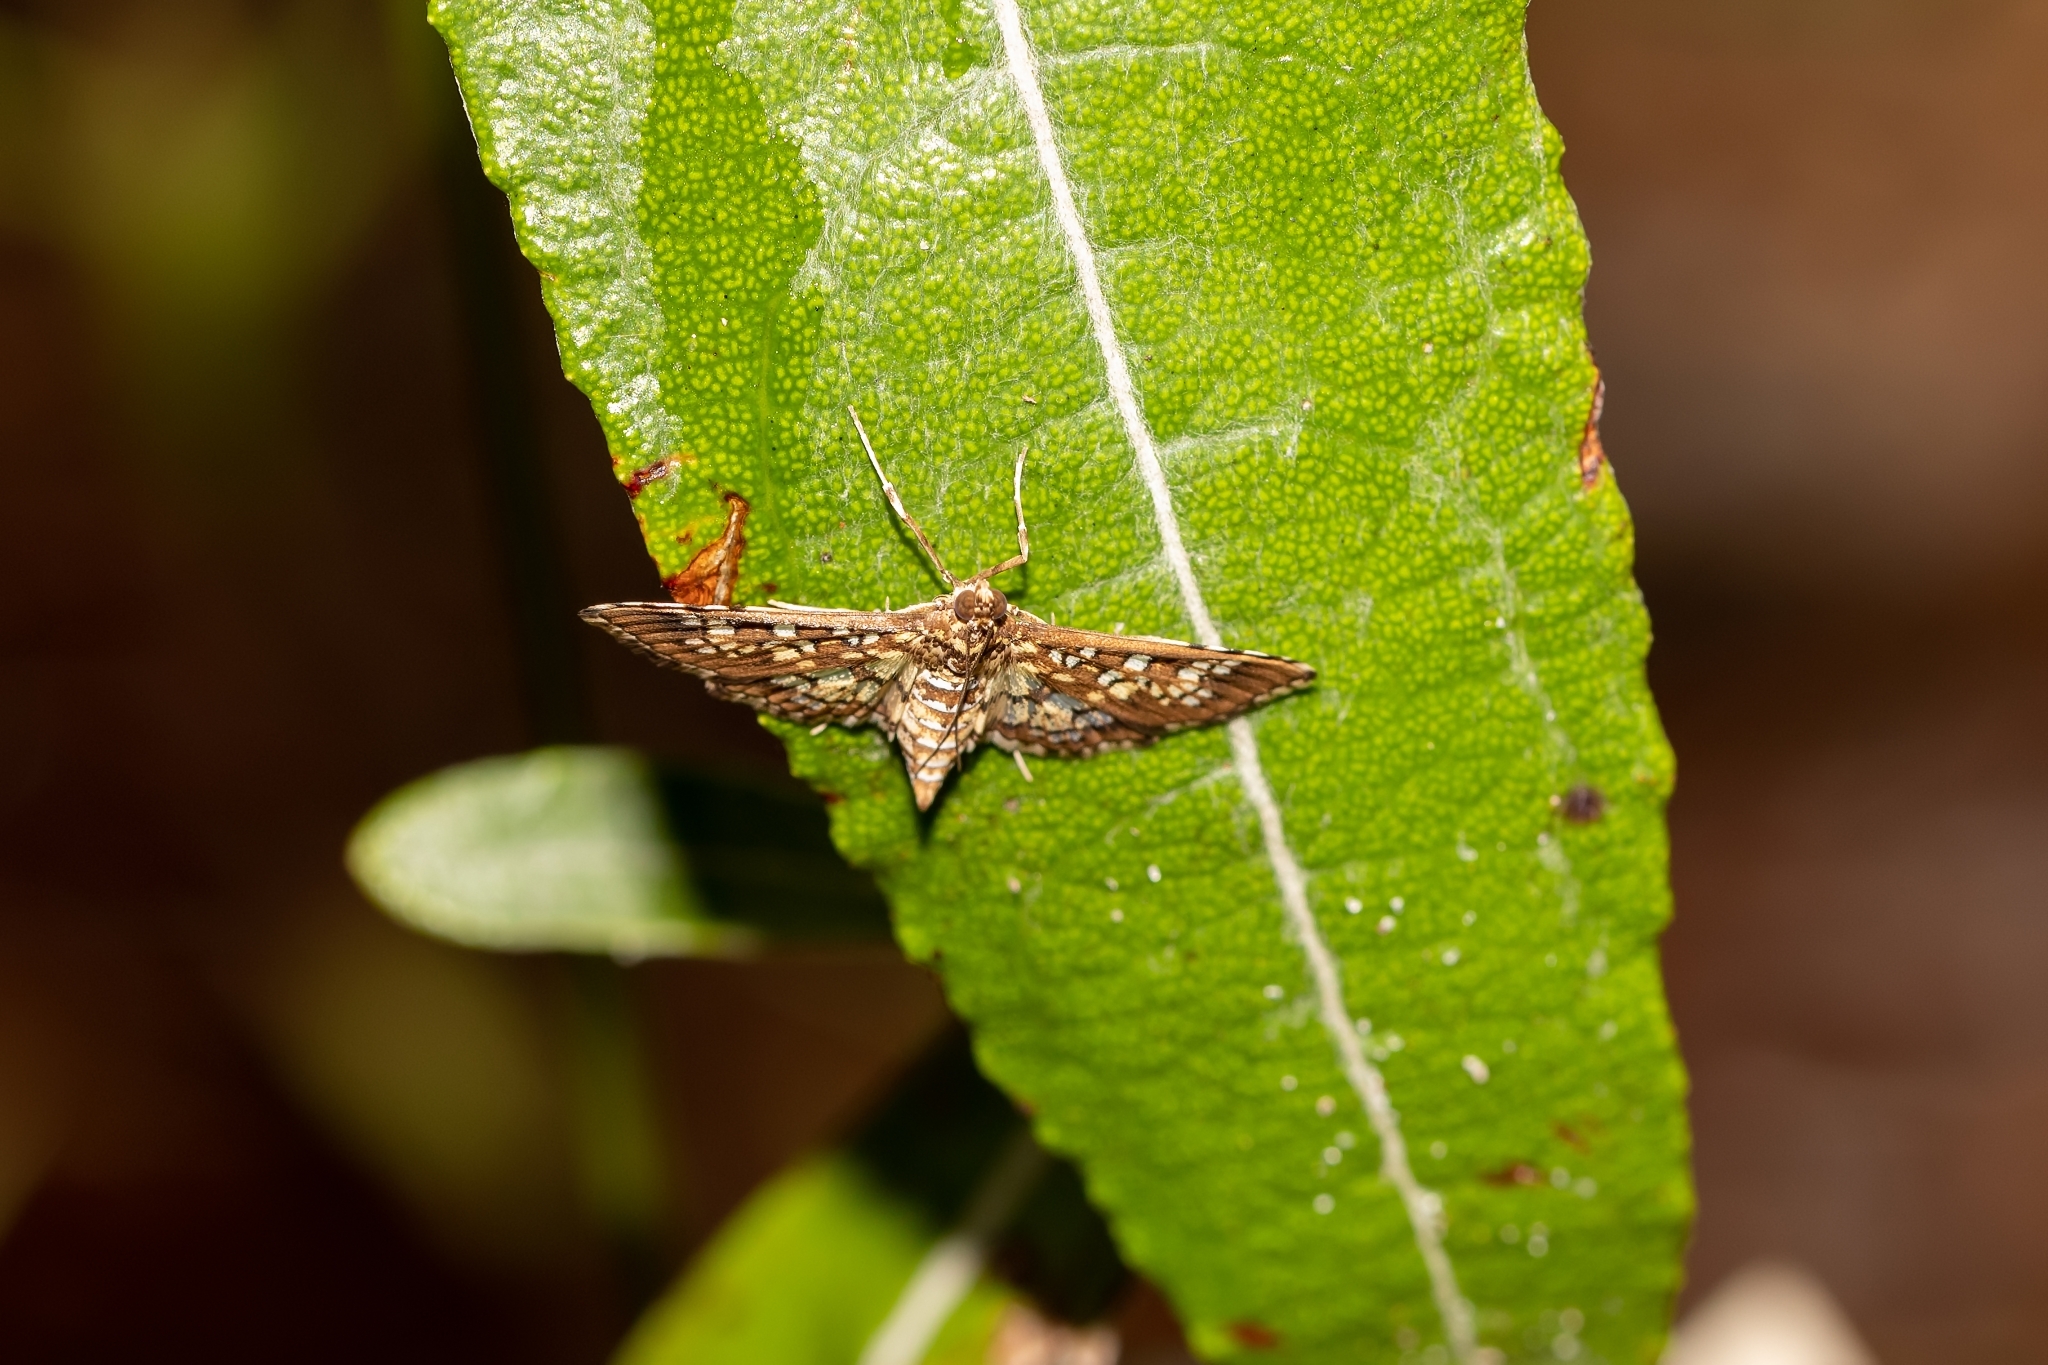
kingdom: Animalia
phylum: Arthropoda
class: Insecta
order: Lepidoptera
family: Crambidae
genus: Samea
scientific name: Samea ecclesialis
